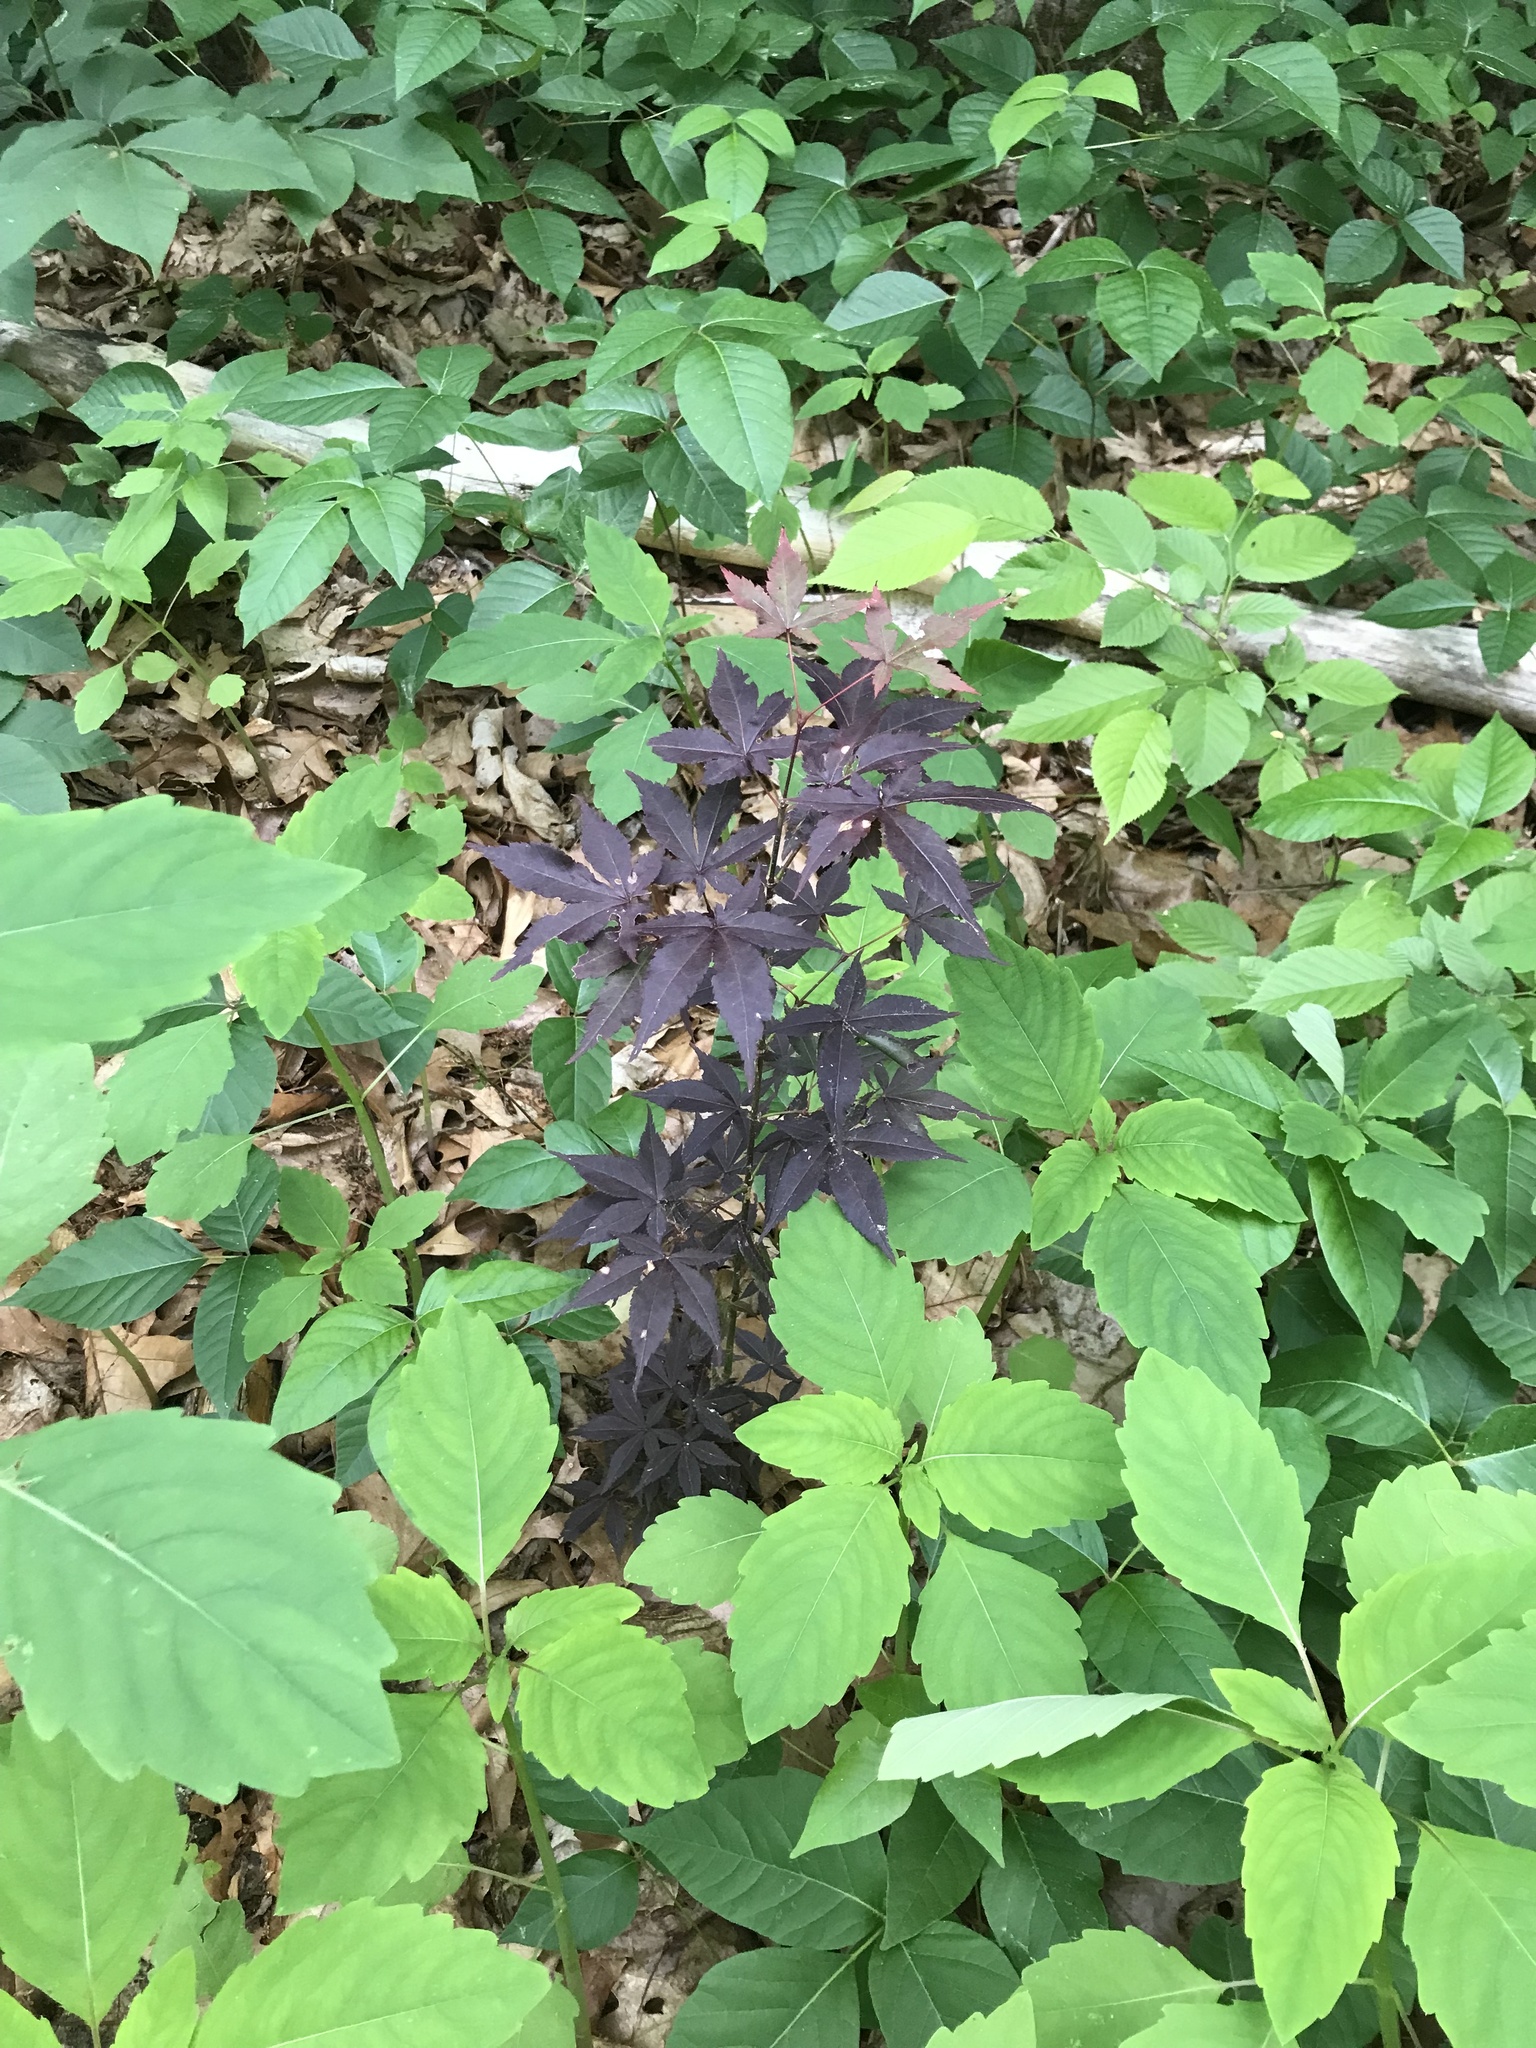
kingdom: Plantae
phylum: Tracheophyta
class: Magnoliopsida
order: Sapindales
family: Sapindaceae
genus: Acer
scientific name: Acer palmatum
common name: Japanese maple
